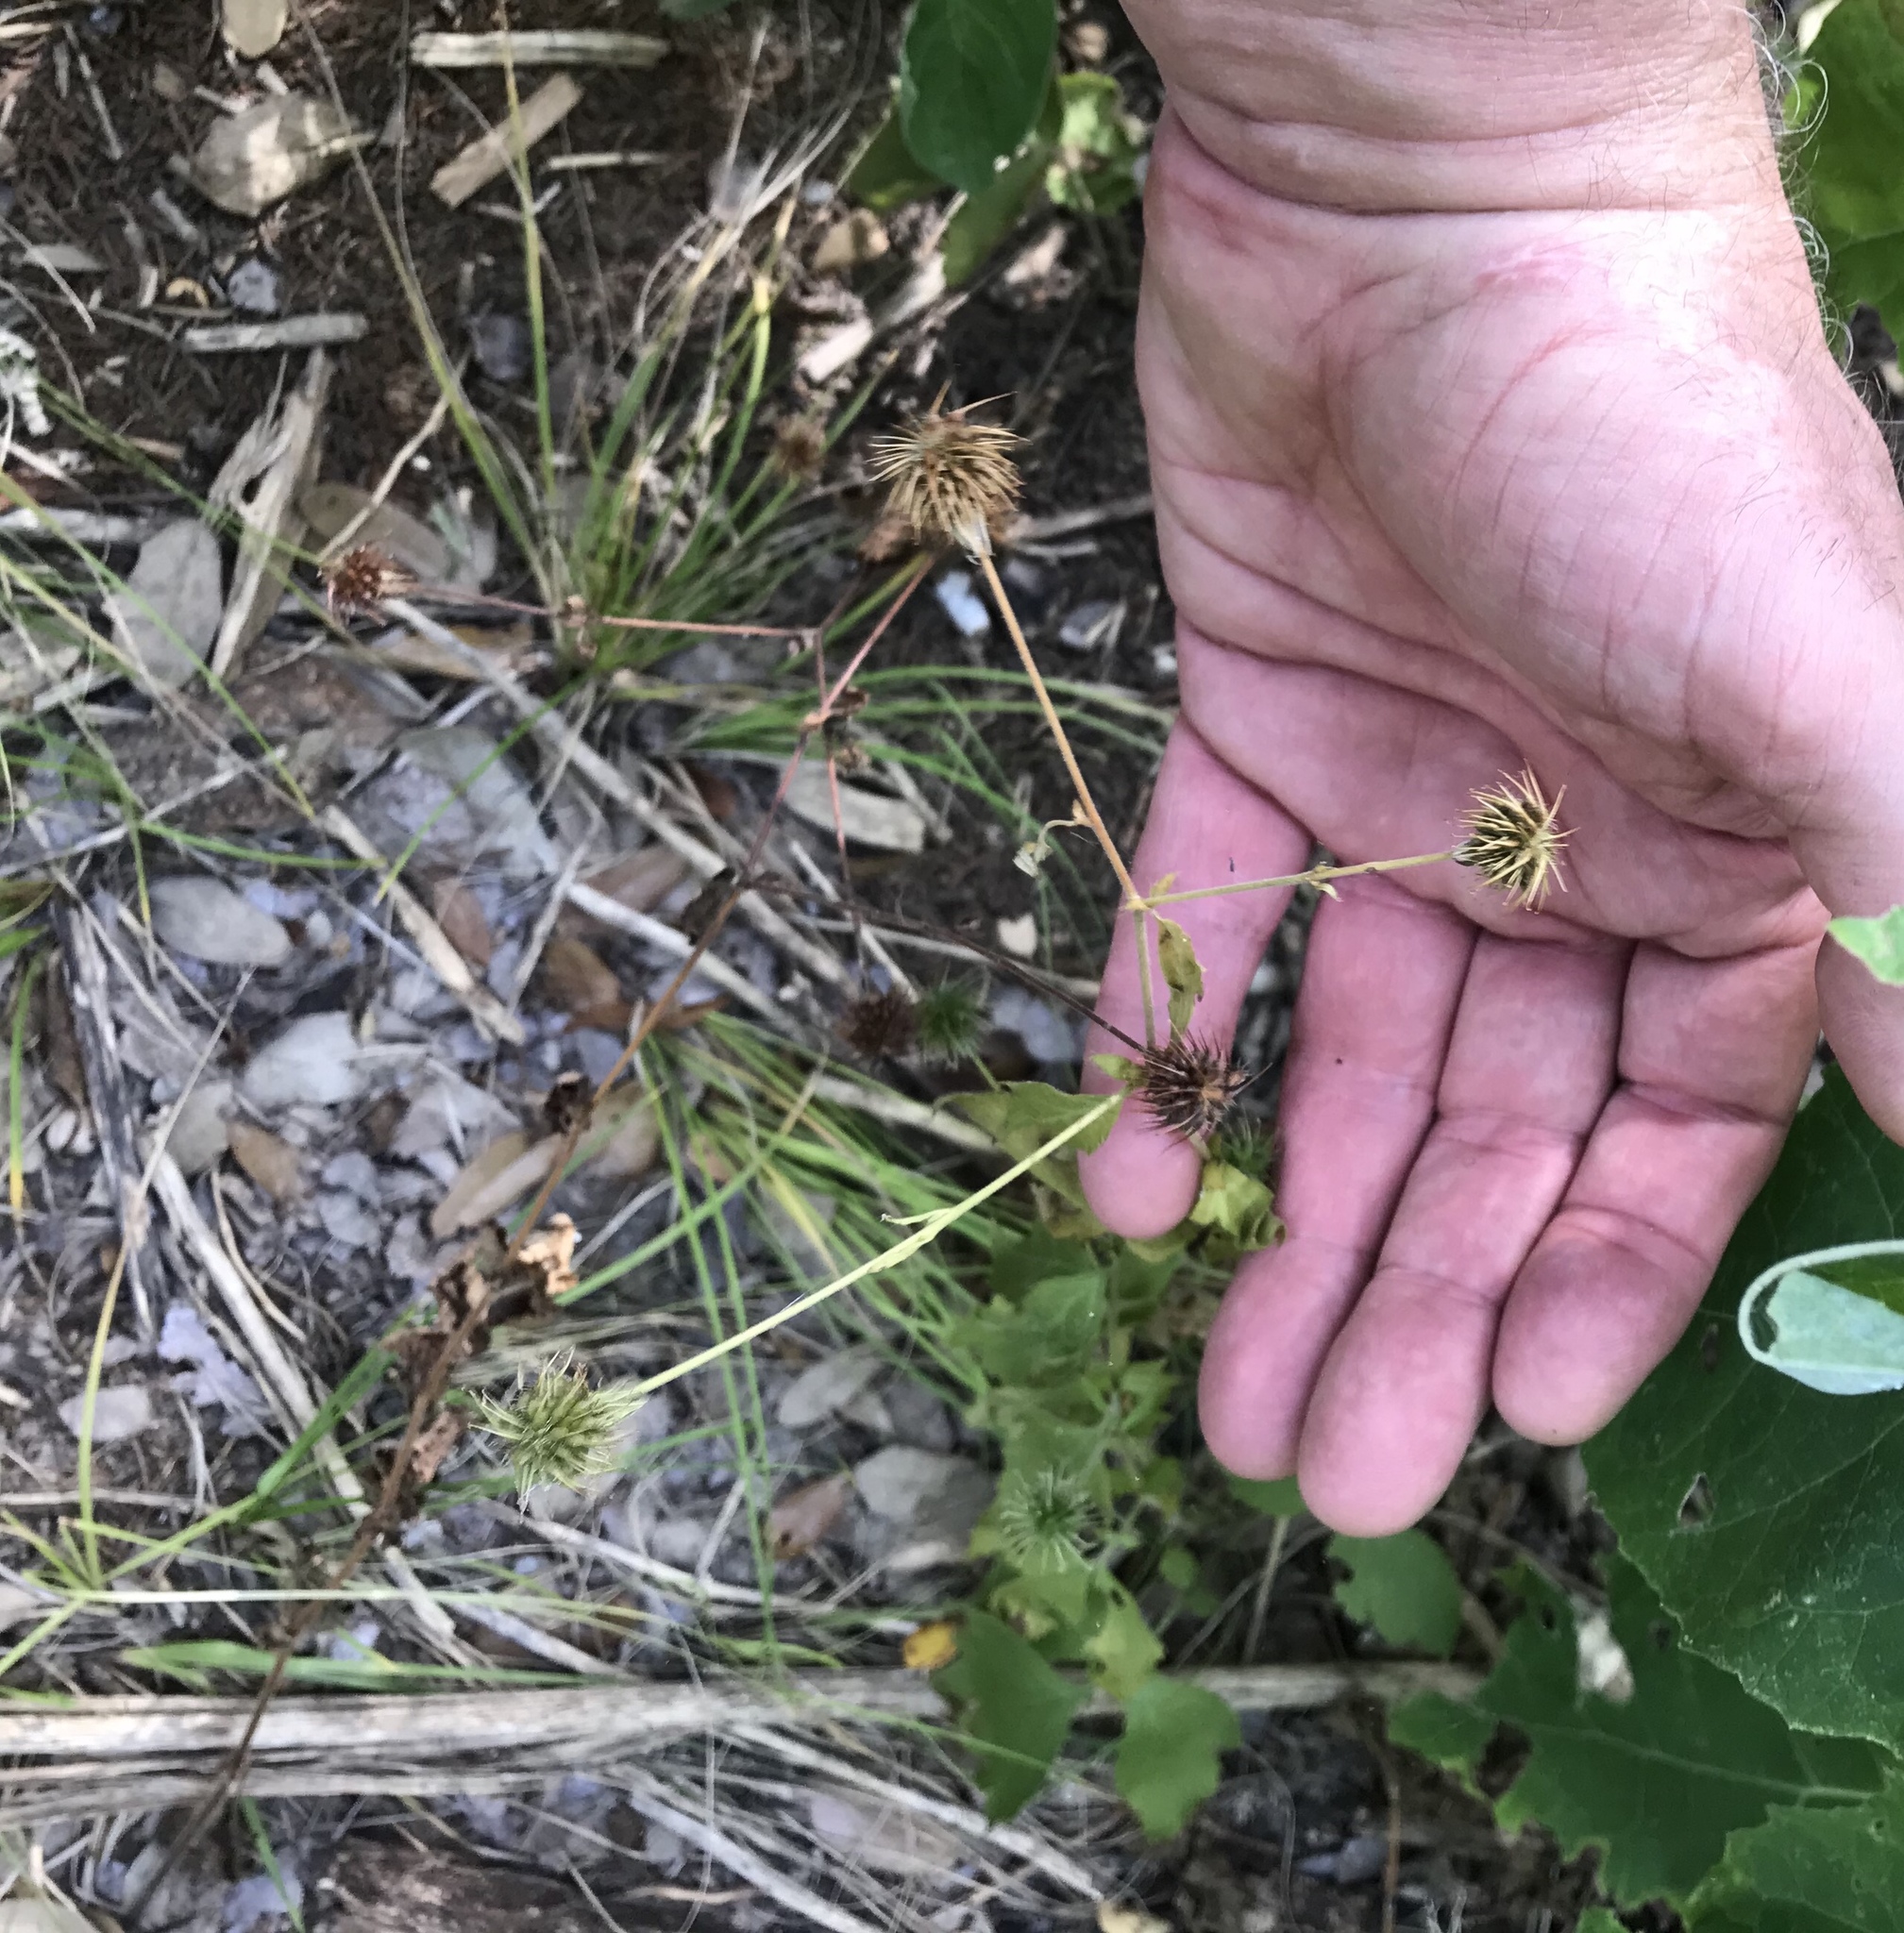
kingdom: Plantae
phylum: Tracheophyta
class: Magnoliopsida
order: Rosales
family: Rosaceae
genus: Geum
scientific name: Geum canadense
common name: White avens
